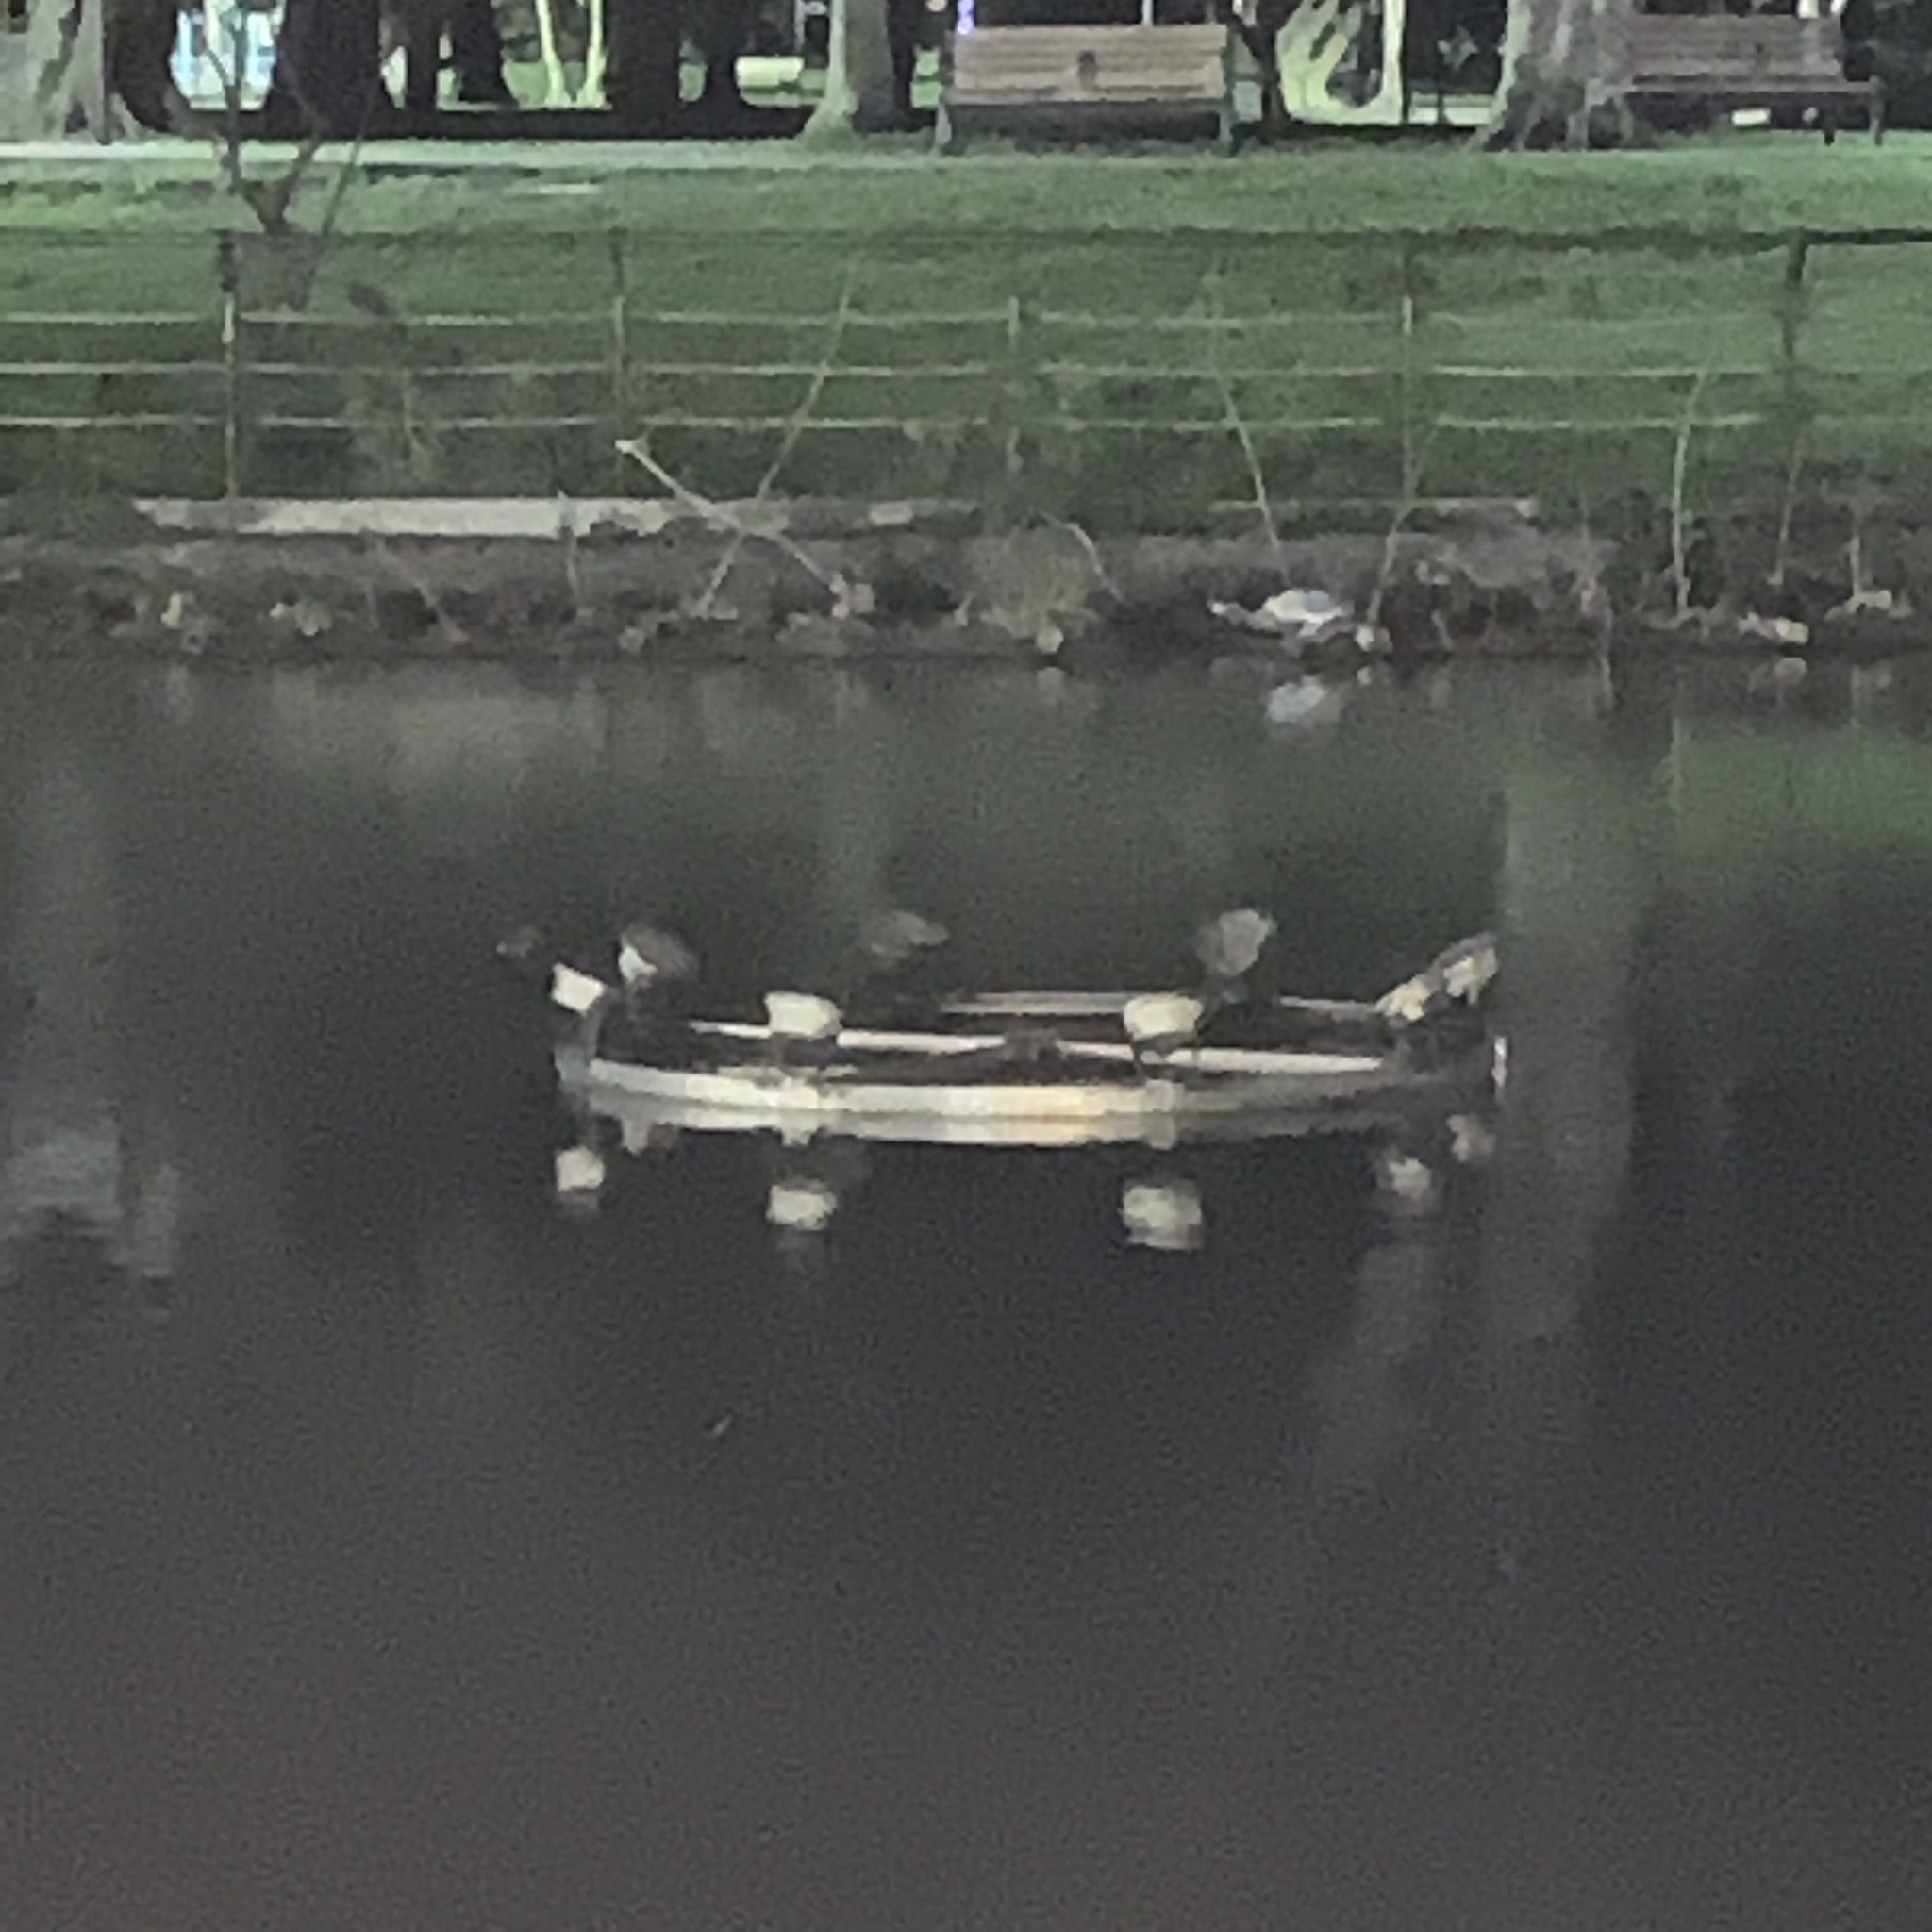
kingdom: Animalia
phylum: Chordata
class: Aves
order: Pelecaniformes
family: Ardeidae
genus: Nycticorax
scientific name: Nycticorax nycticorax
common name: Black-crowned night heron
